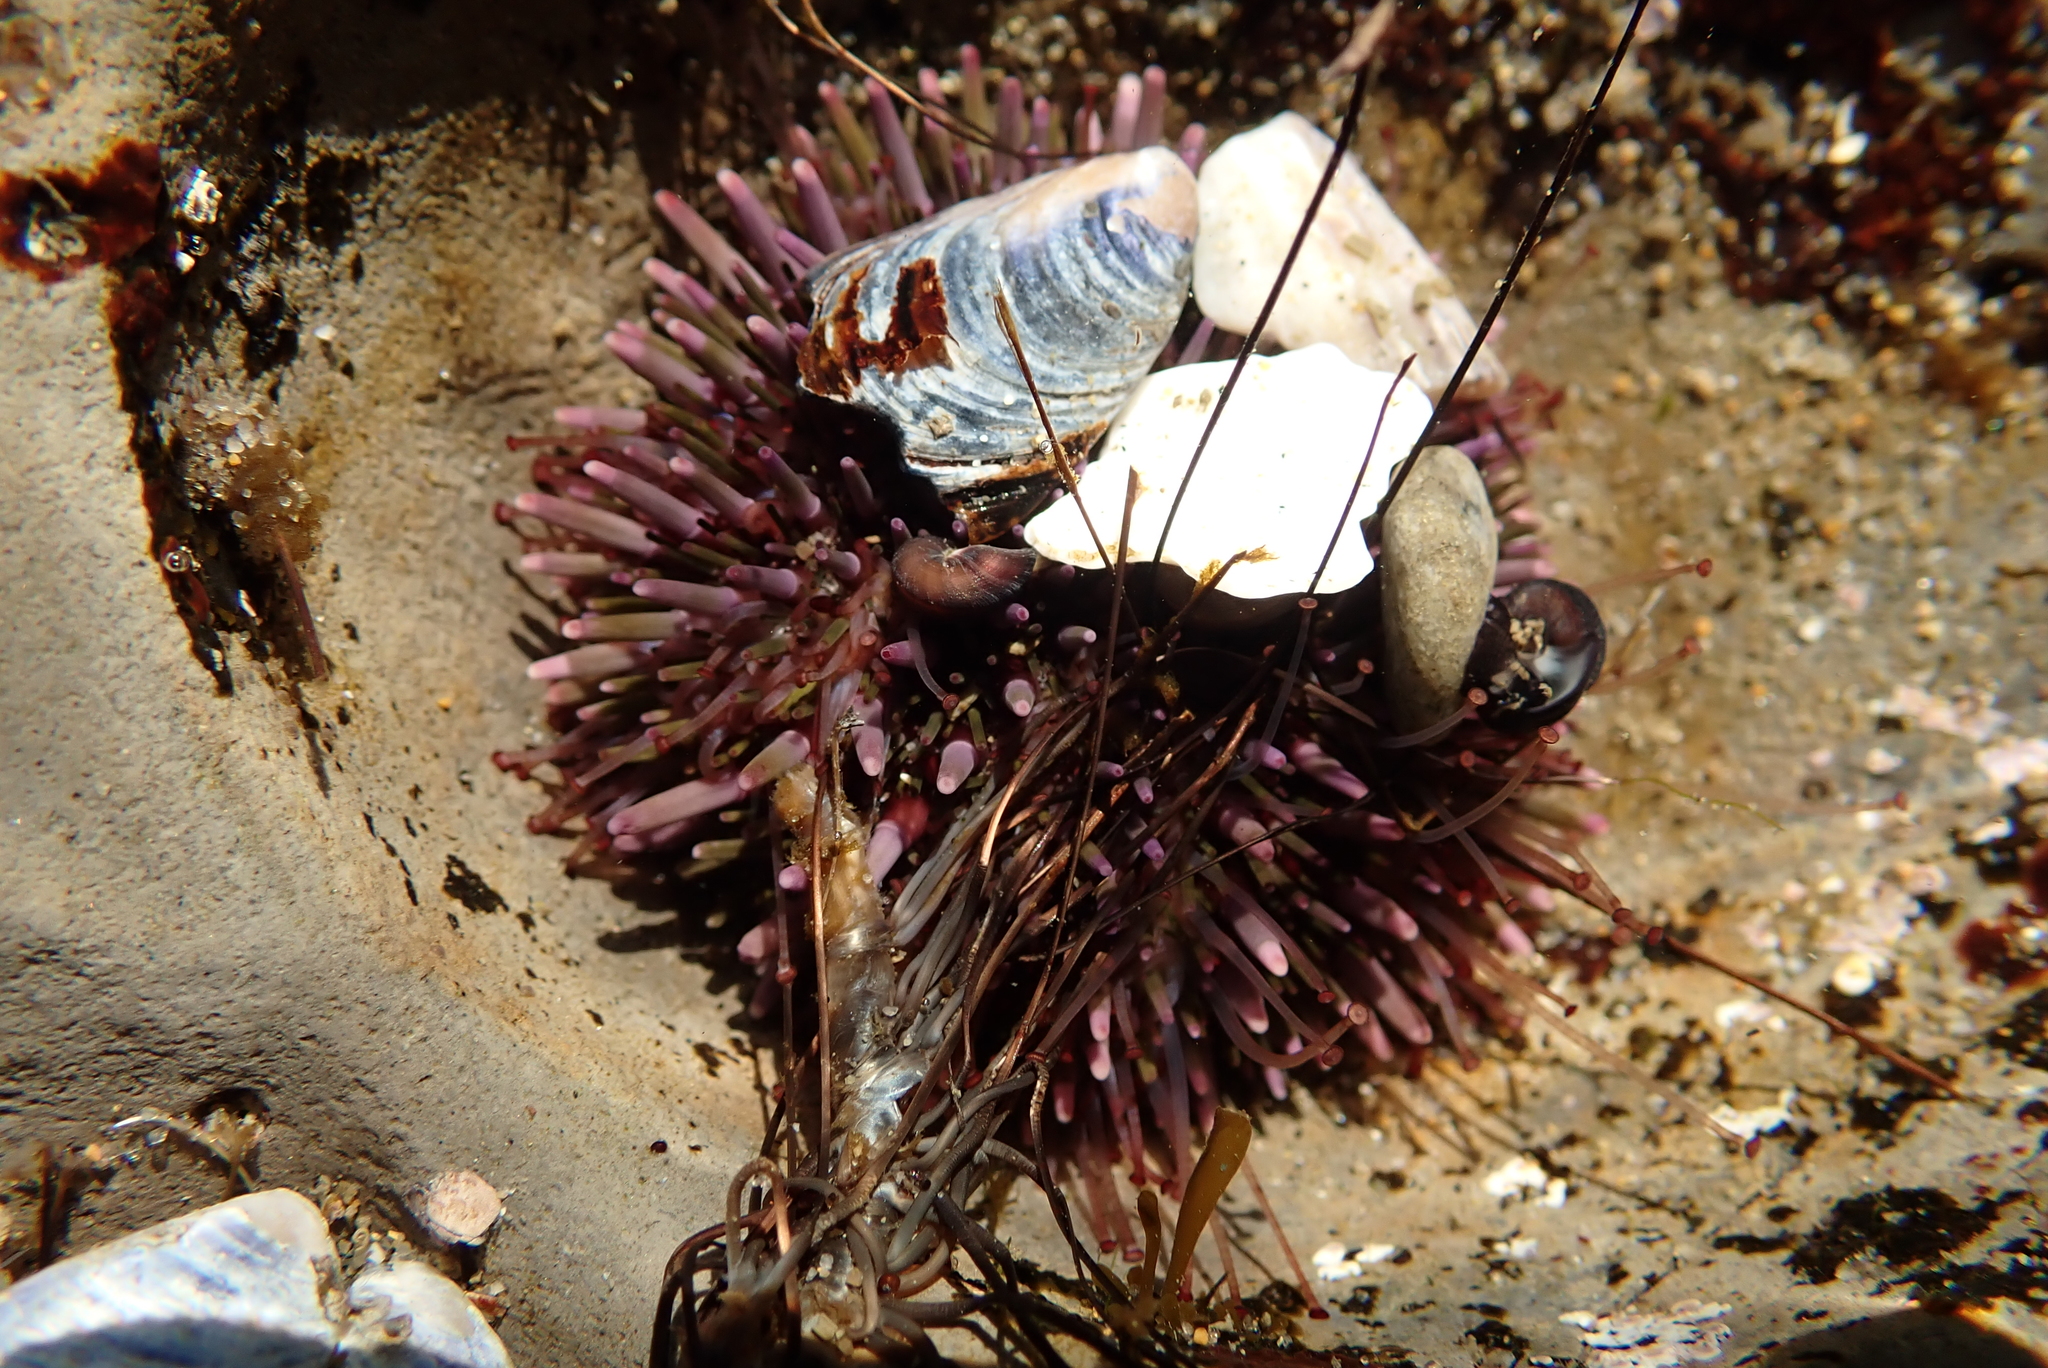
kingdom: Animalia
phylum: Echinodermata
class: Echinoidea
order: Camarodonta
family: Strongylocentrotidae
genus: Strongylocentrotus
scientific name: Strongylocentrotus purpuratus
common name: Purple sea urchin
